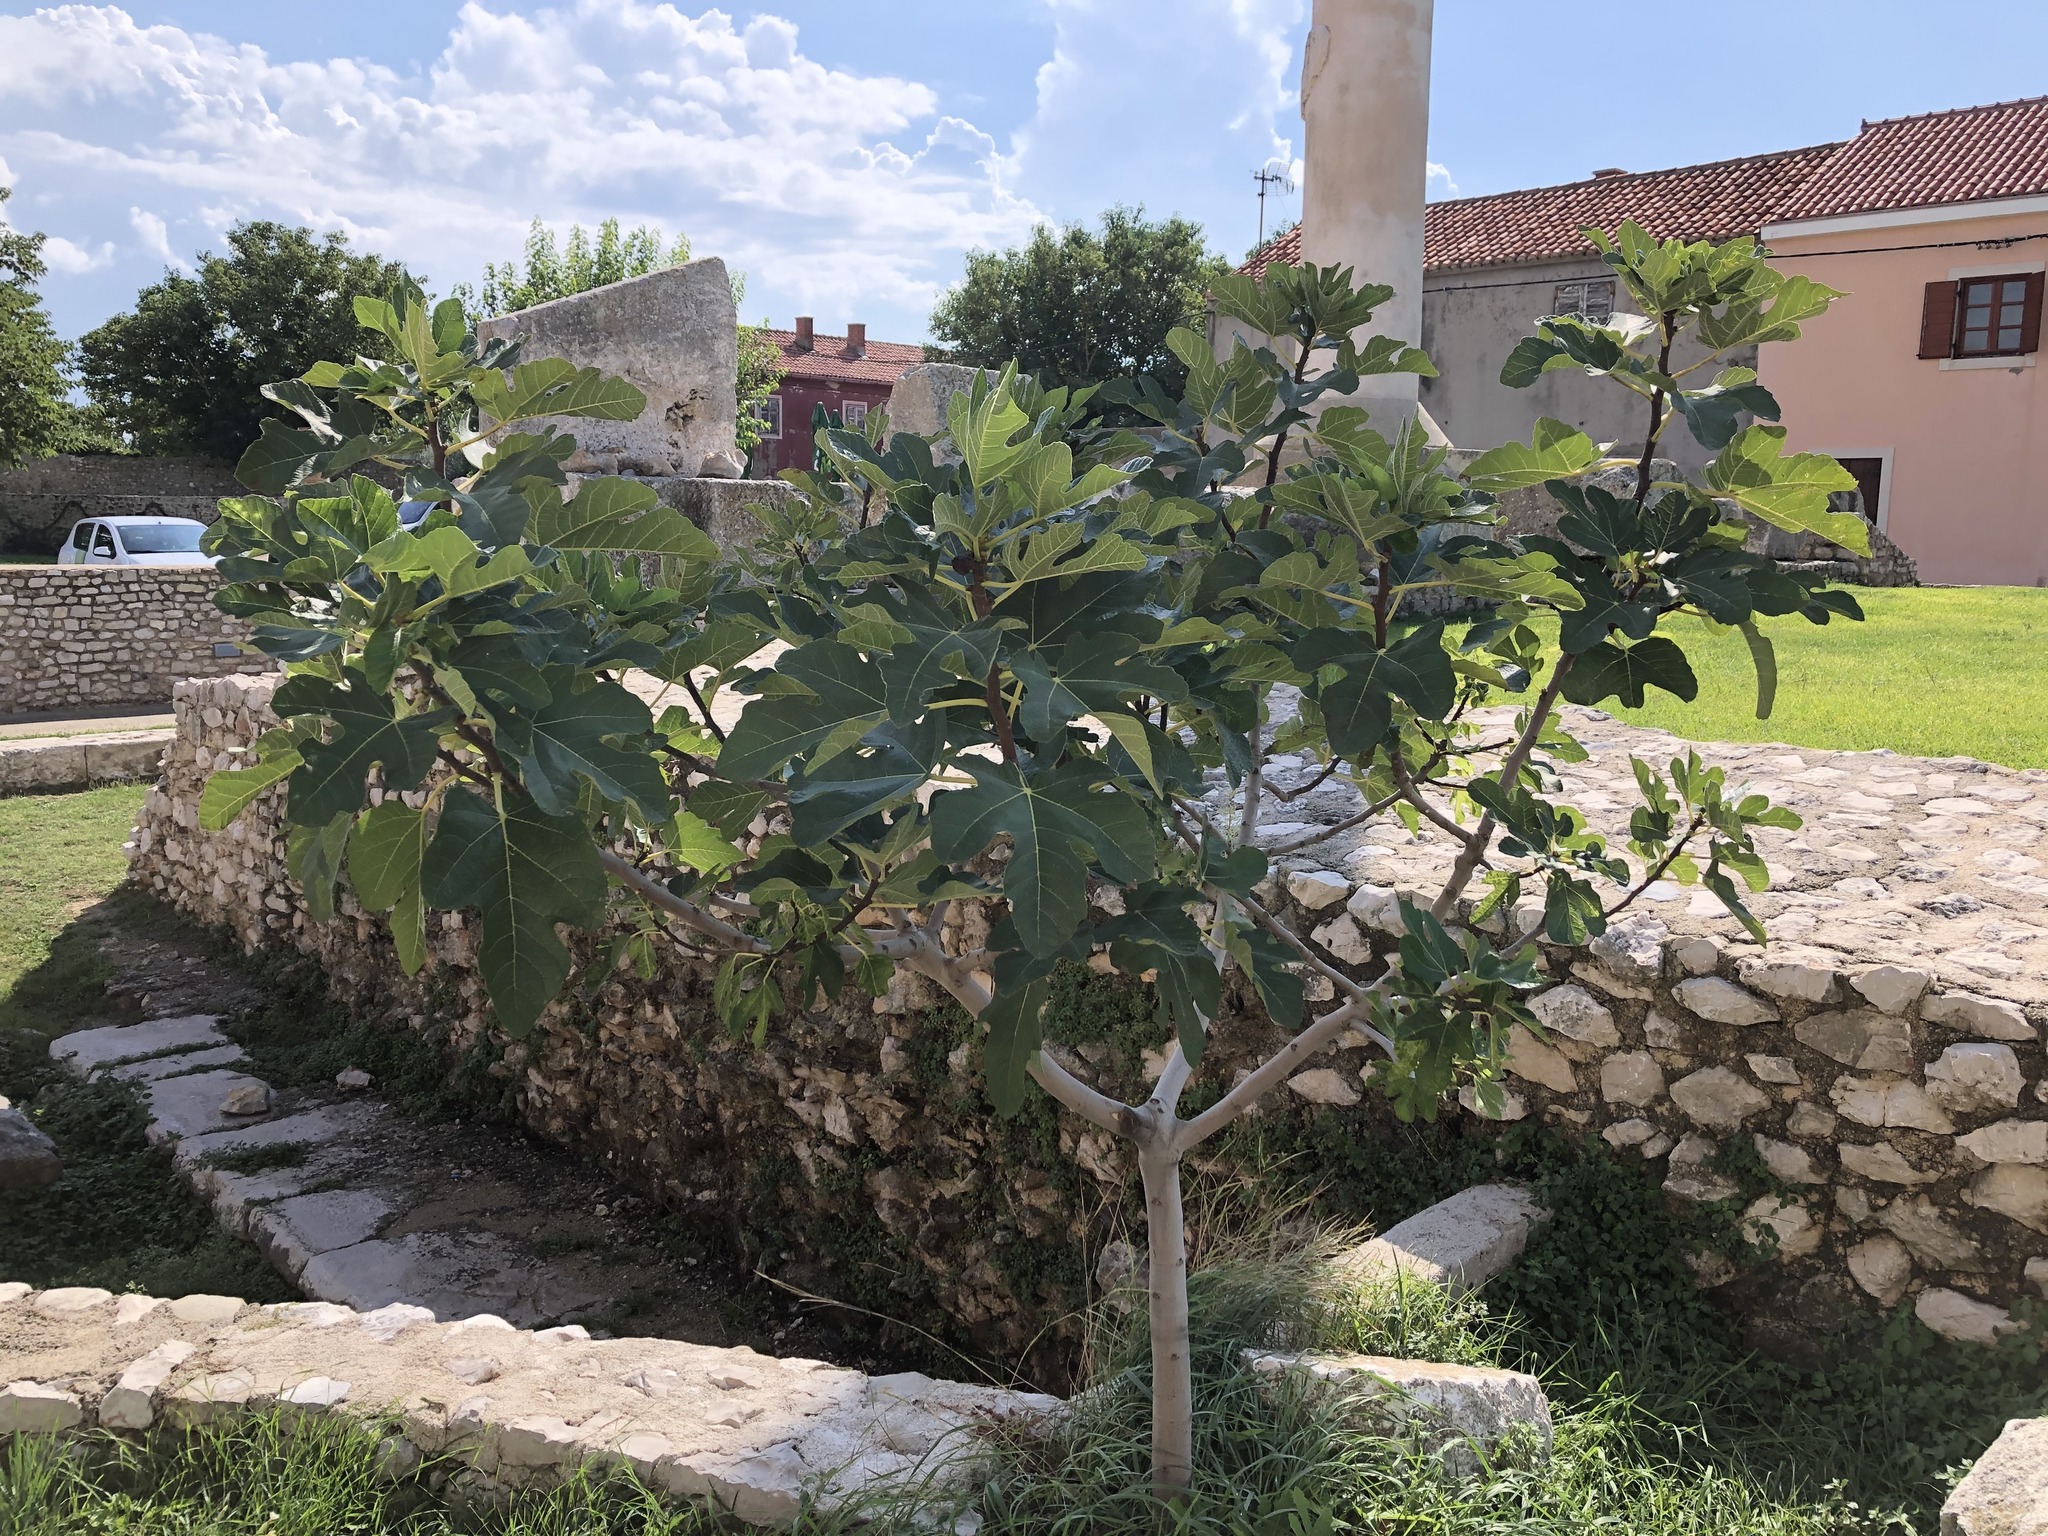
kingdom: Plantae
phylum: Tracheophyta
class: Magnoliopsida
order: Rosales
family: Moraceae
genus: Ficus
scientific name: Ficus carica
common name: Fig
